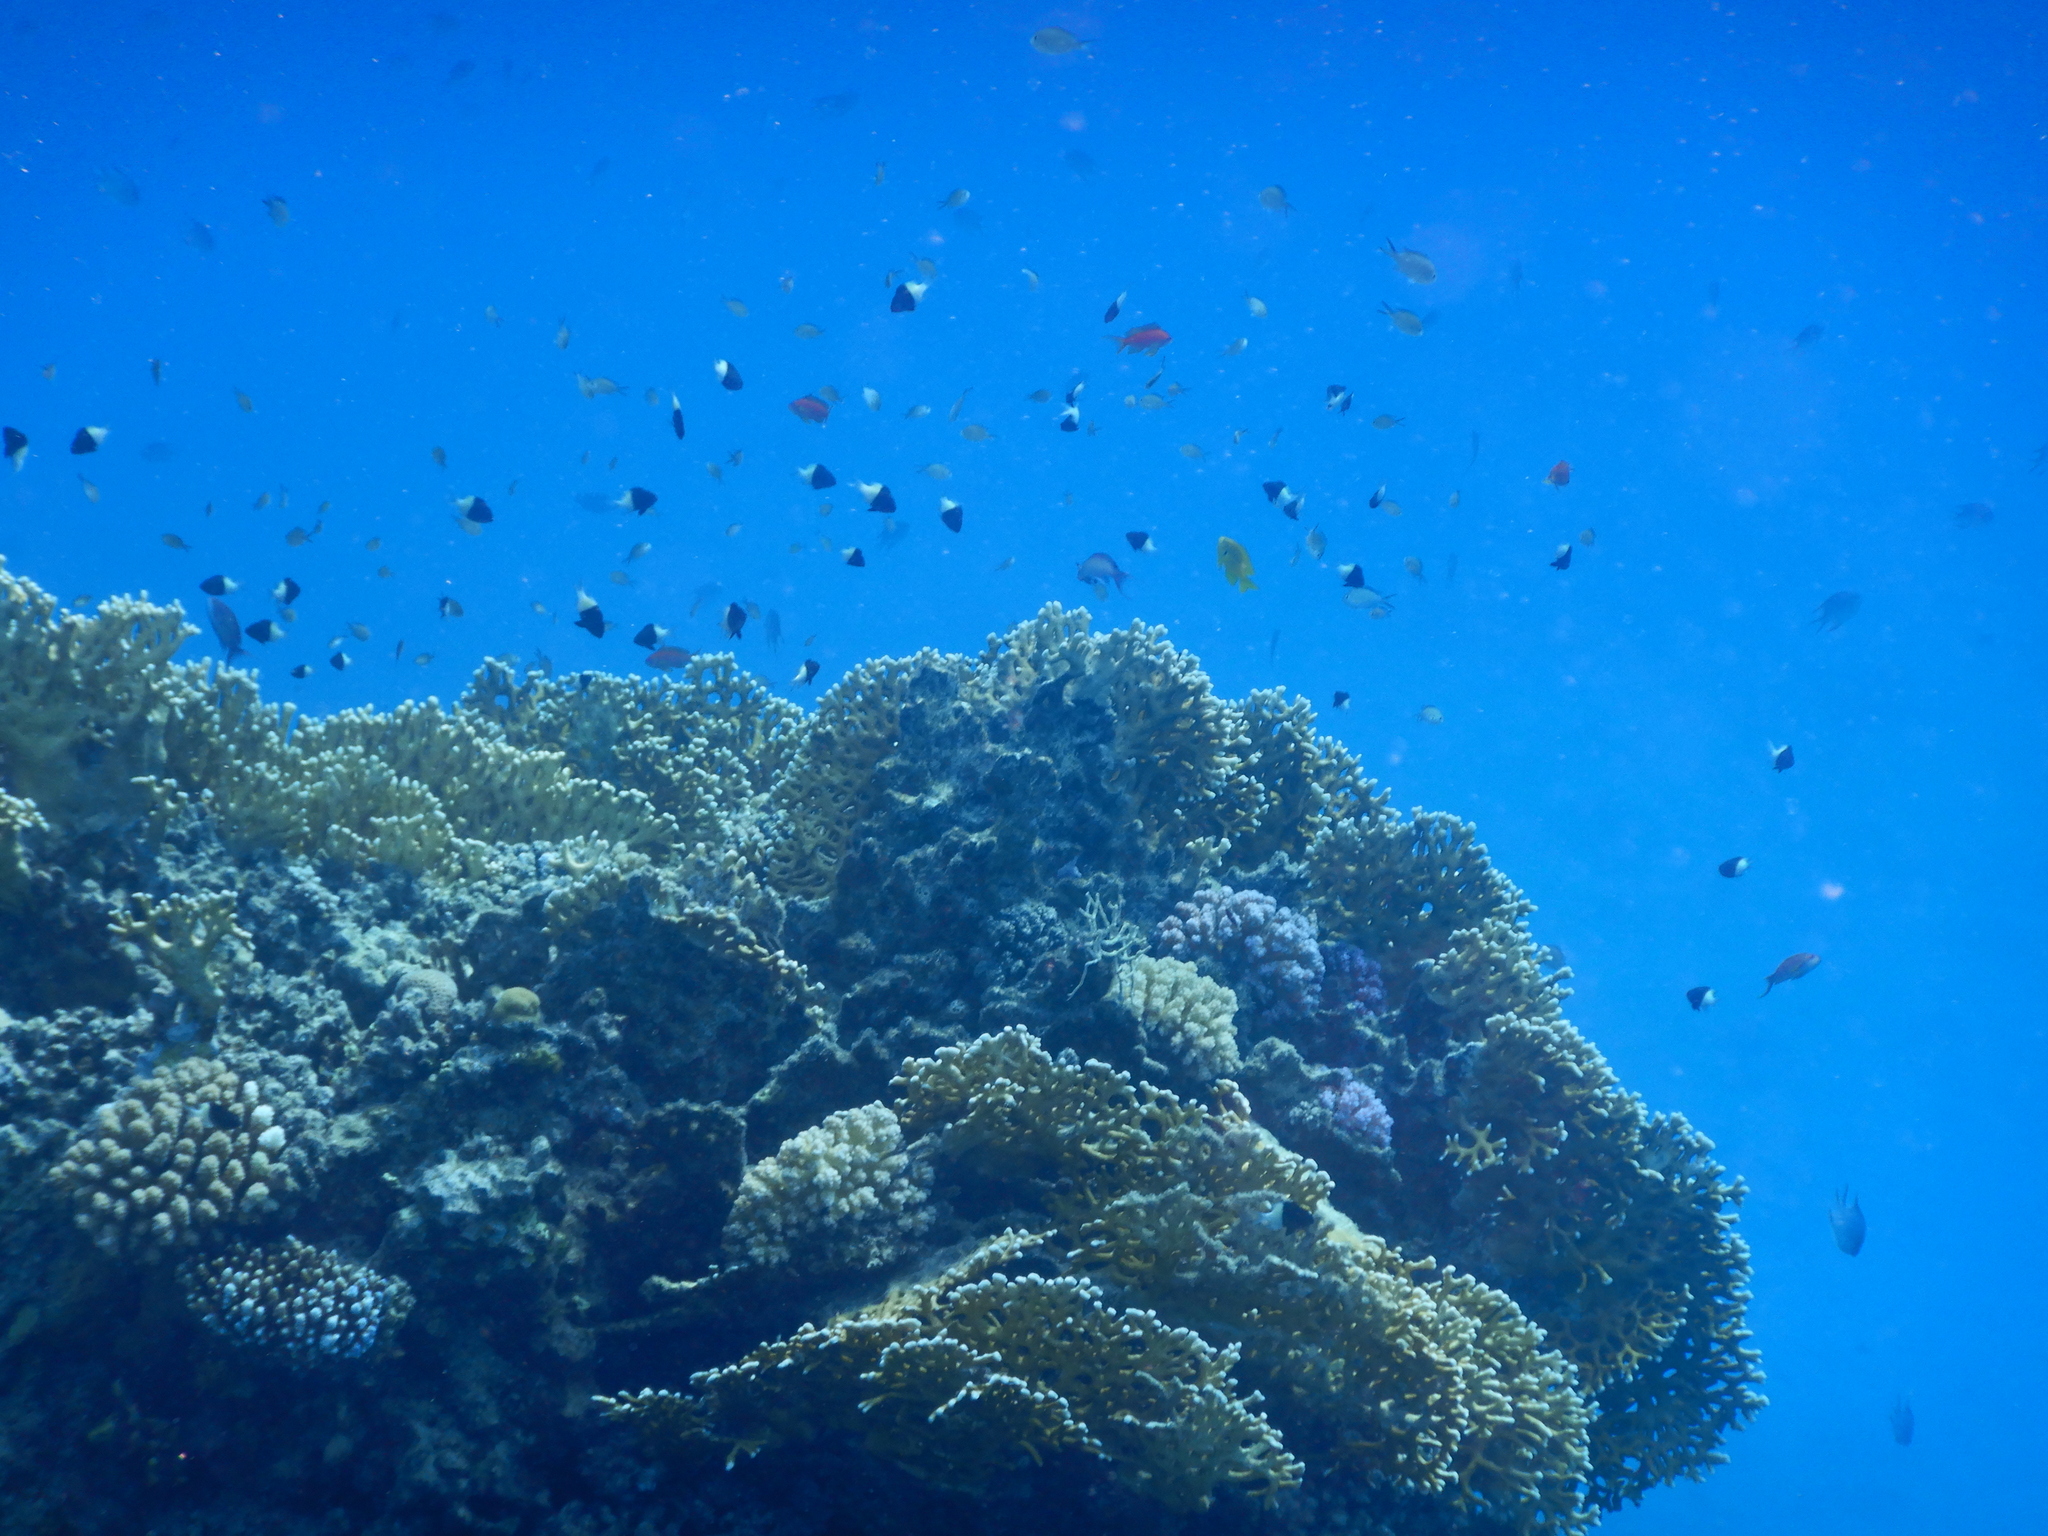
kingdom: Animalia
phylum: Chordata
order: Perciformes
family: Pomacentridae
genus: Chromis
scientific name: Chromis dimidiata
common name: Half-and-half chromis
